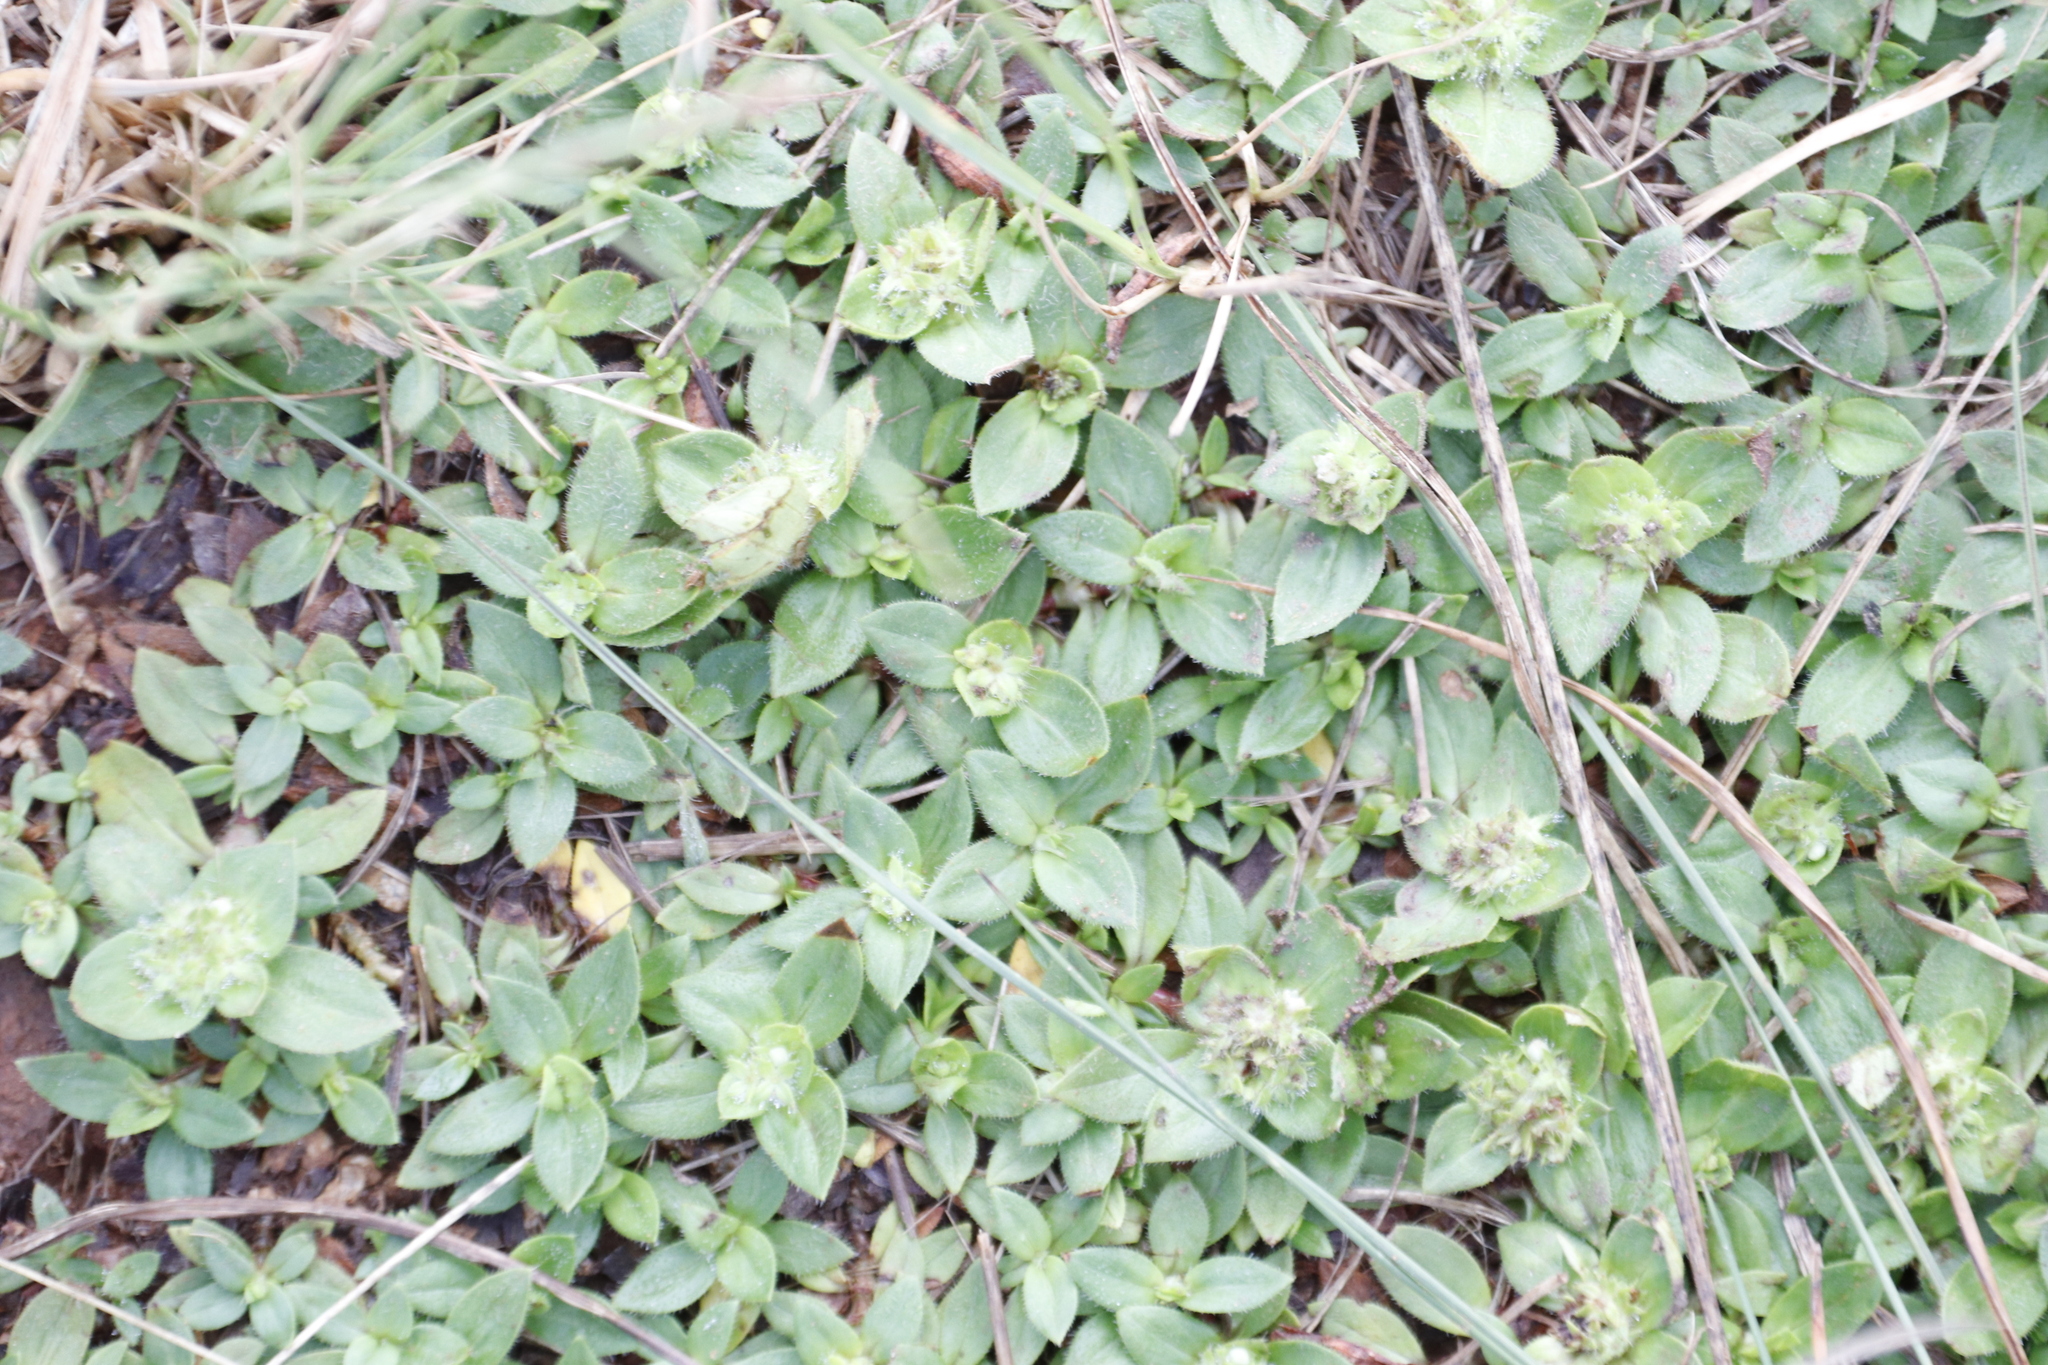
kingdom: Plantae
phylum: Tracheophyta
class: Magnoliopsida
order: Gentianales
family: Rubiaceae
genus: Richardia
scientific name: Richardia brasiliensis
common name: Tropical mexican clover
